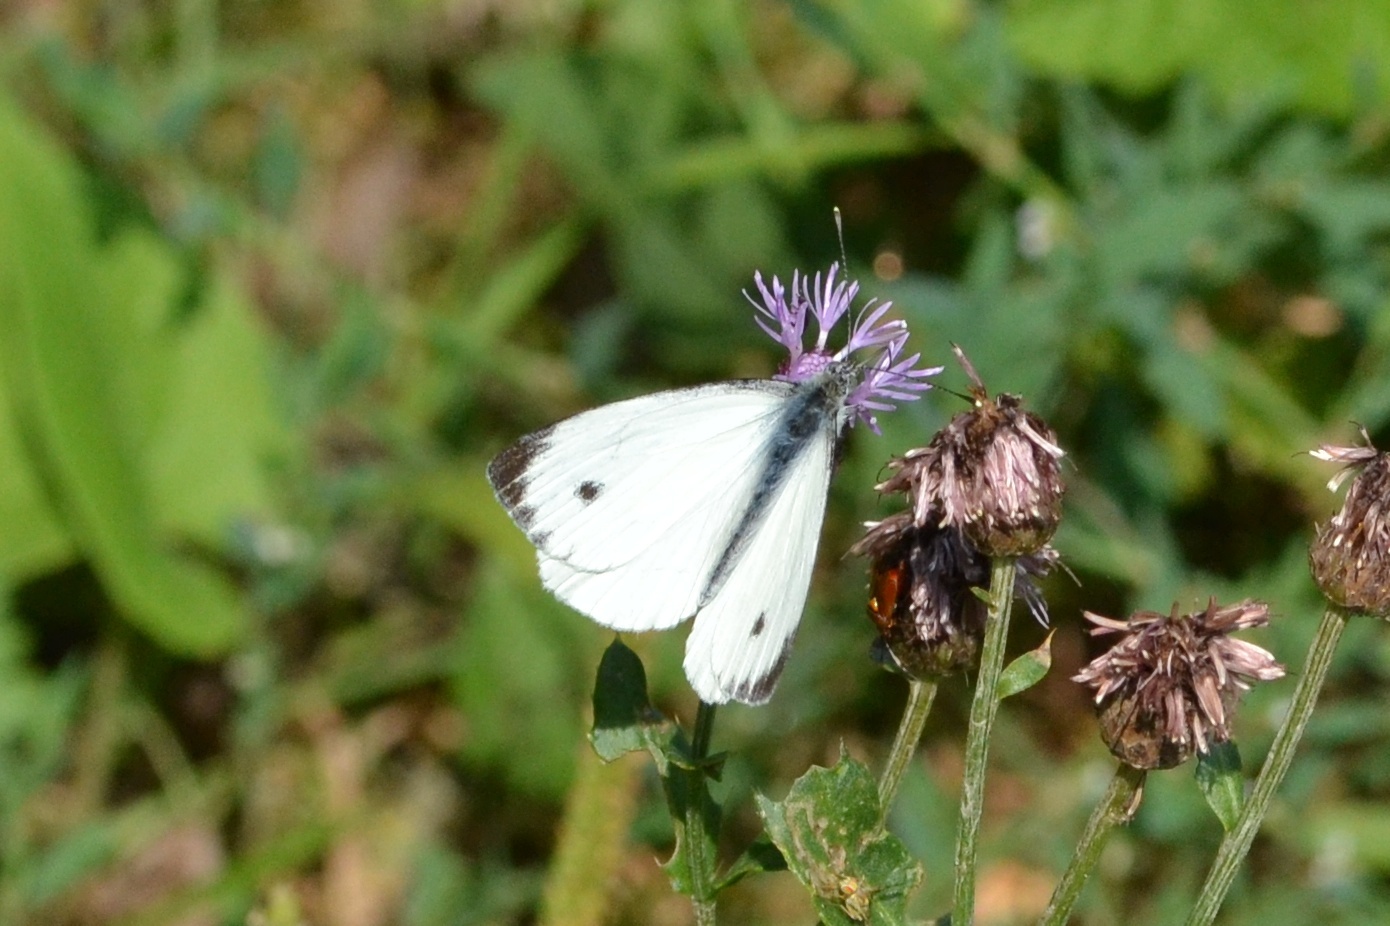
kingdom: Animalia
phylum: Arthropoda
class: Insecta
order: Lepidoptera
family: Pieridae
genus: Pieris
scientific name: Pieris napi
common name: Green-veined white
